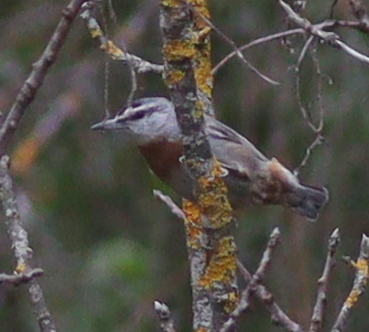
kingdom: Animalia
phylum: Chordata
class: Aves
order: Passeriformes
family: Sittidae
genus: Sitta
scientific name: Sitta krueperi
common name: Krüper's nuthatch
